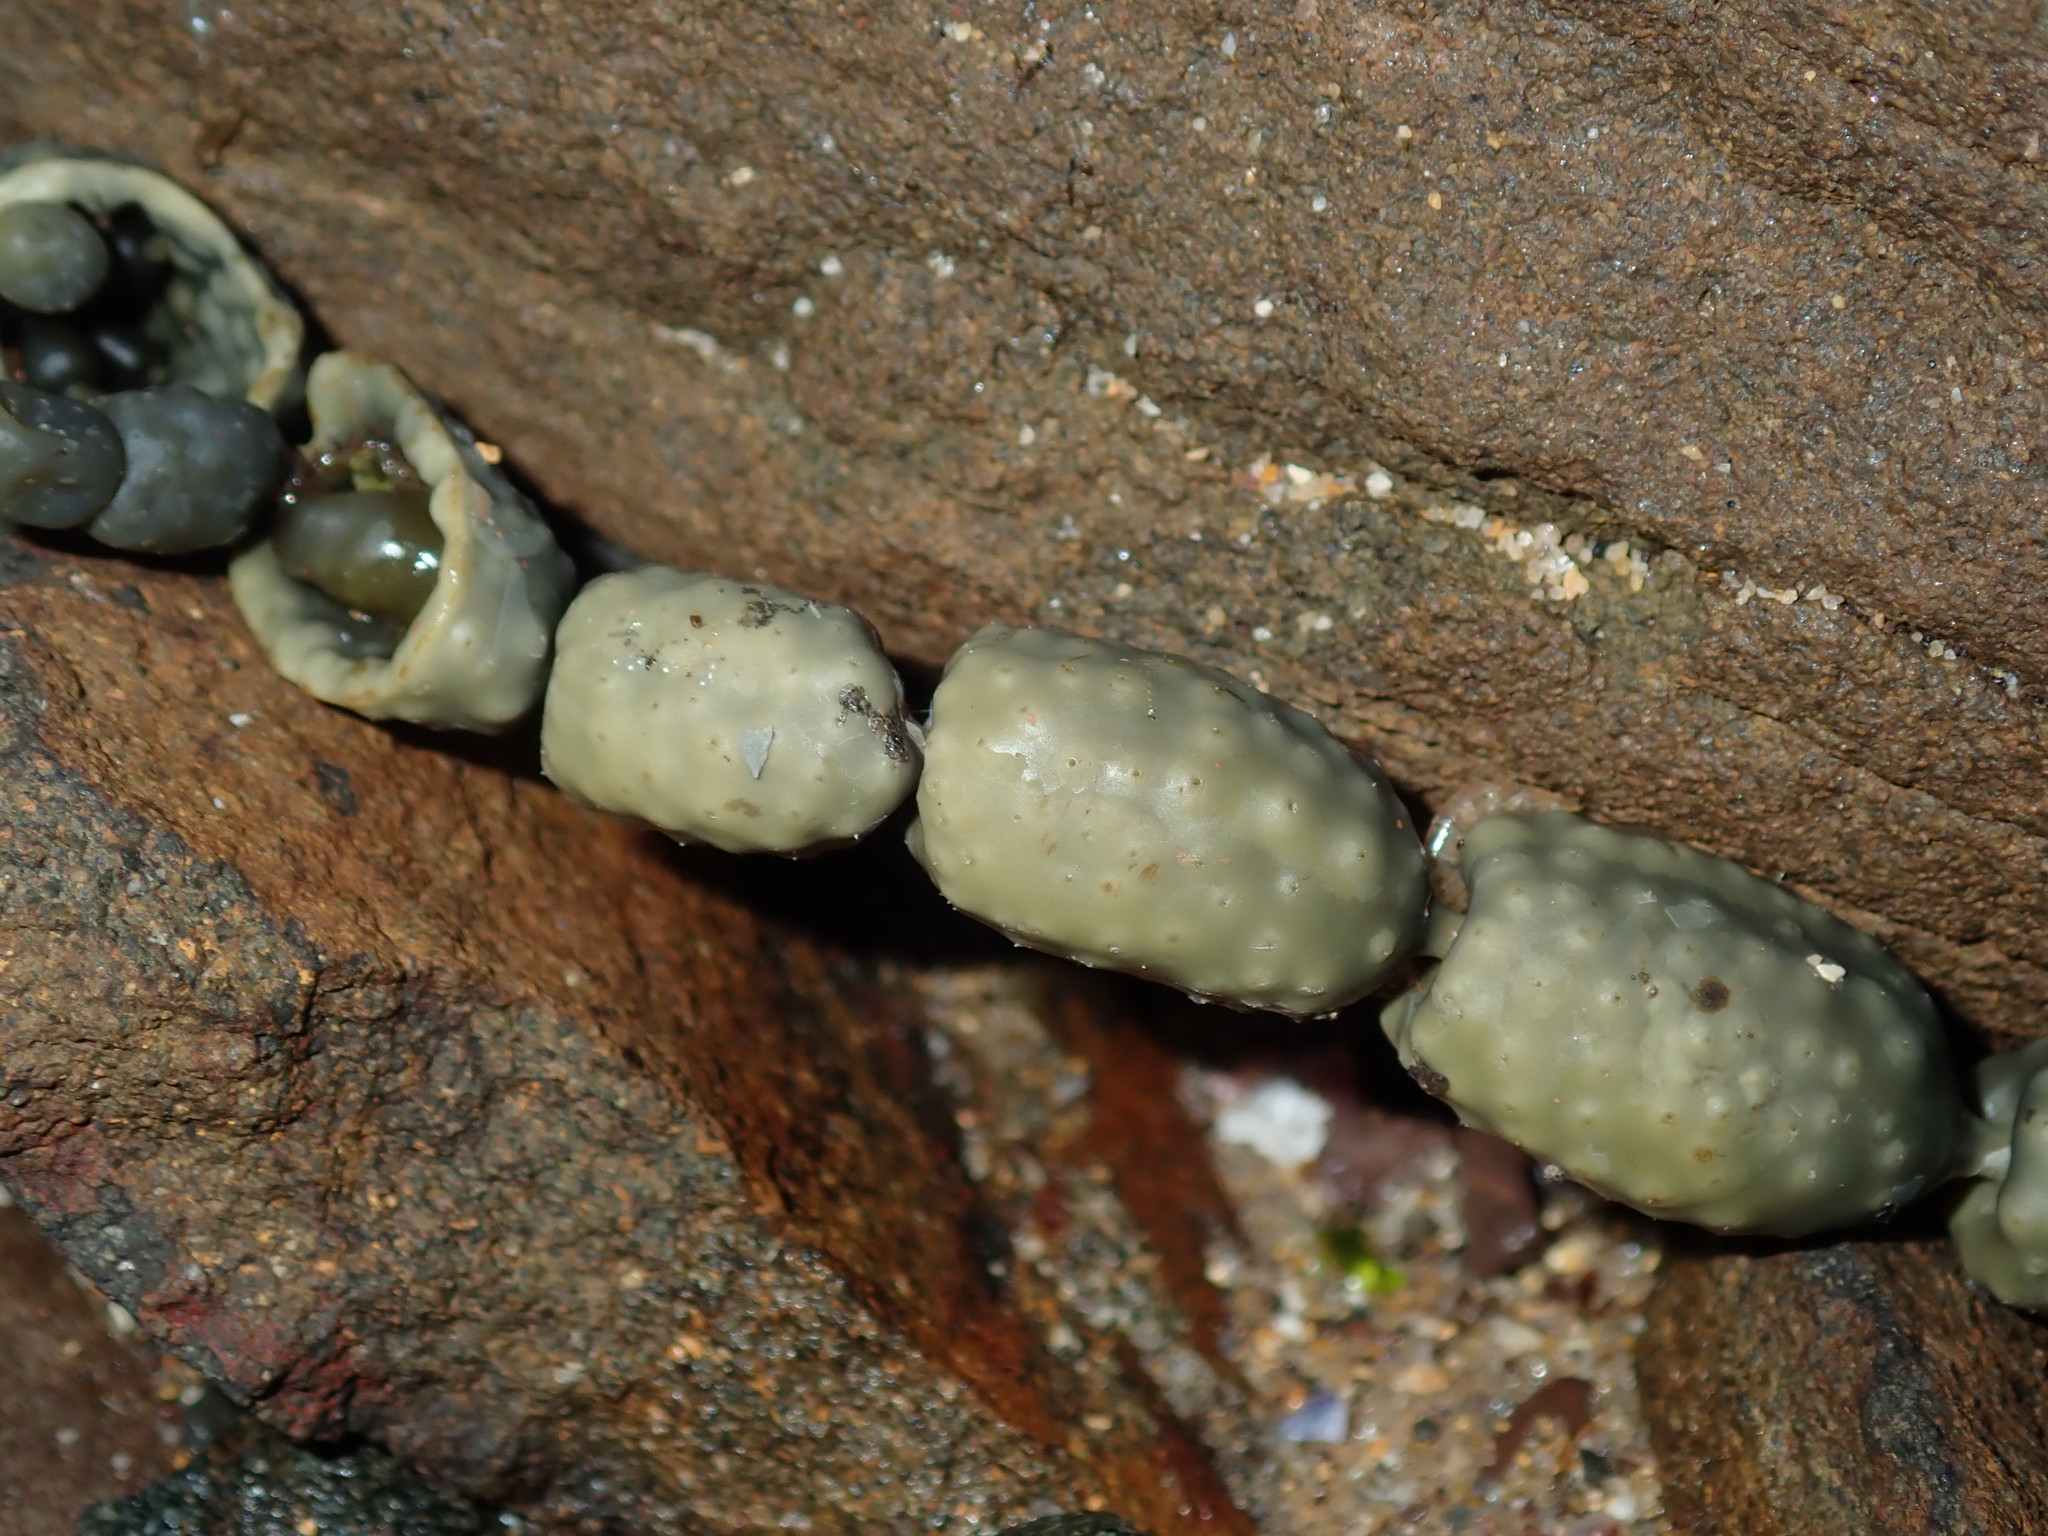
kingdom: Chromista
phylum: Ochrophyta
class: Phaeophyceae
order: Fucales
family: Hormosiraceae
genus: Hormosira
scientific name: Hormosira banksii
